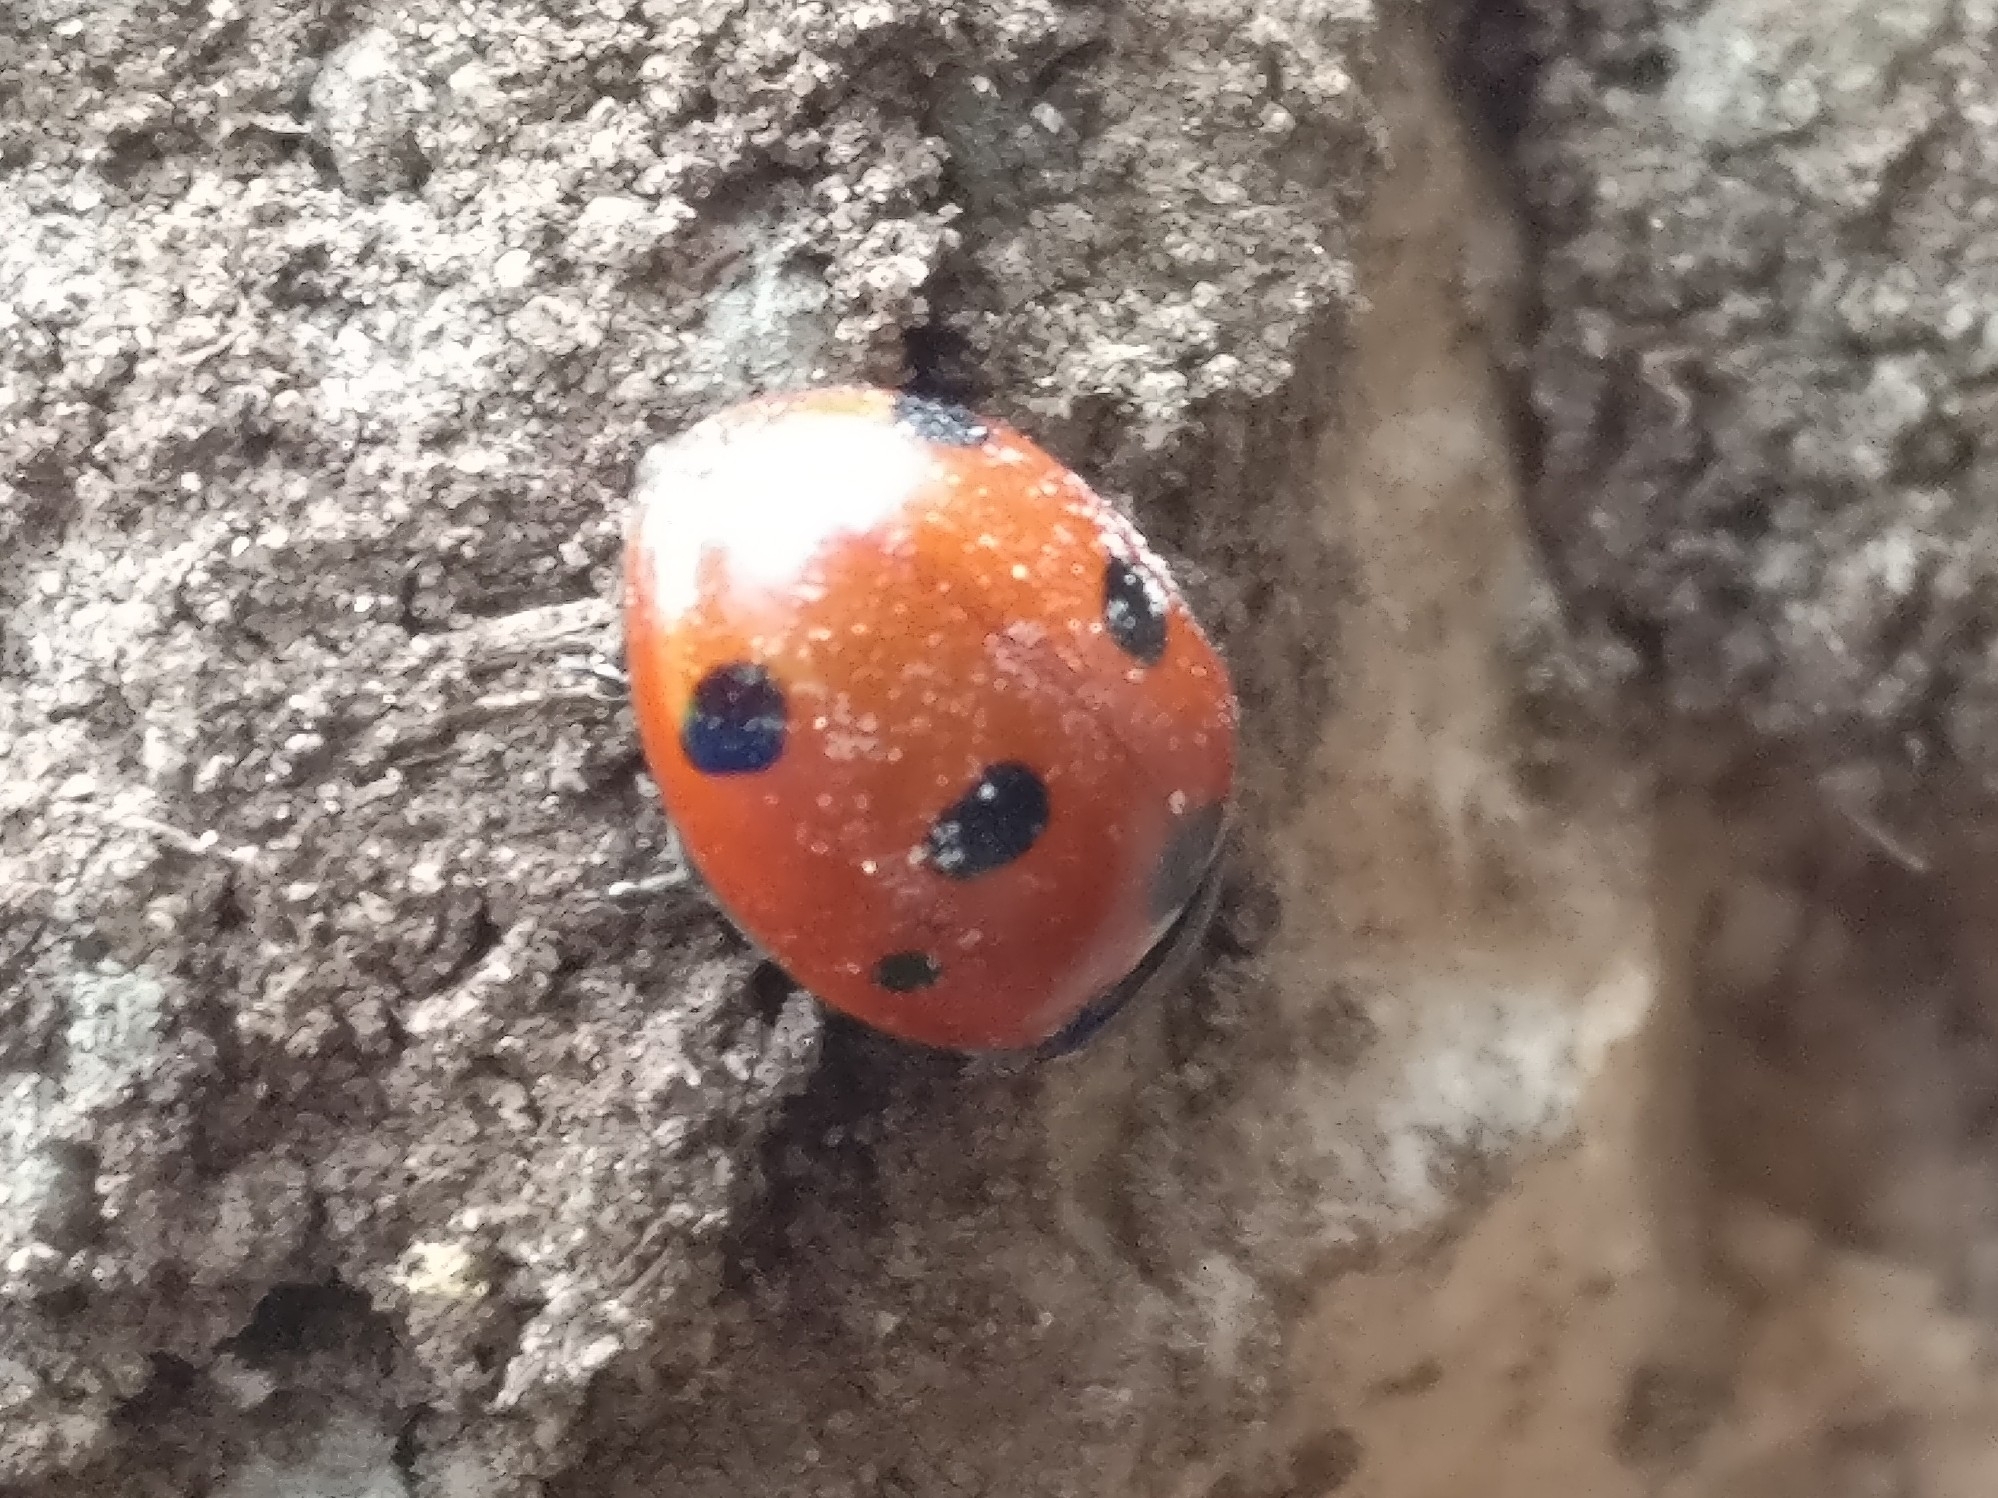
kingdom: Animalia
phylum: Arthropoda
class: Insecta
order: Coleoptera
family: Coccinellidae
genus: Coccinella
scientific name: Coccinella septempunctata
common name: Sevenspotted lady beetle
